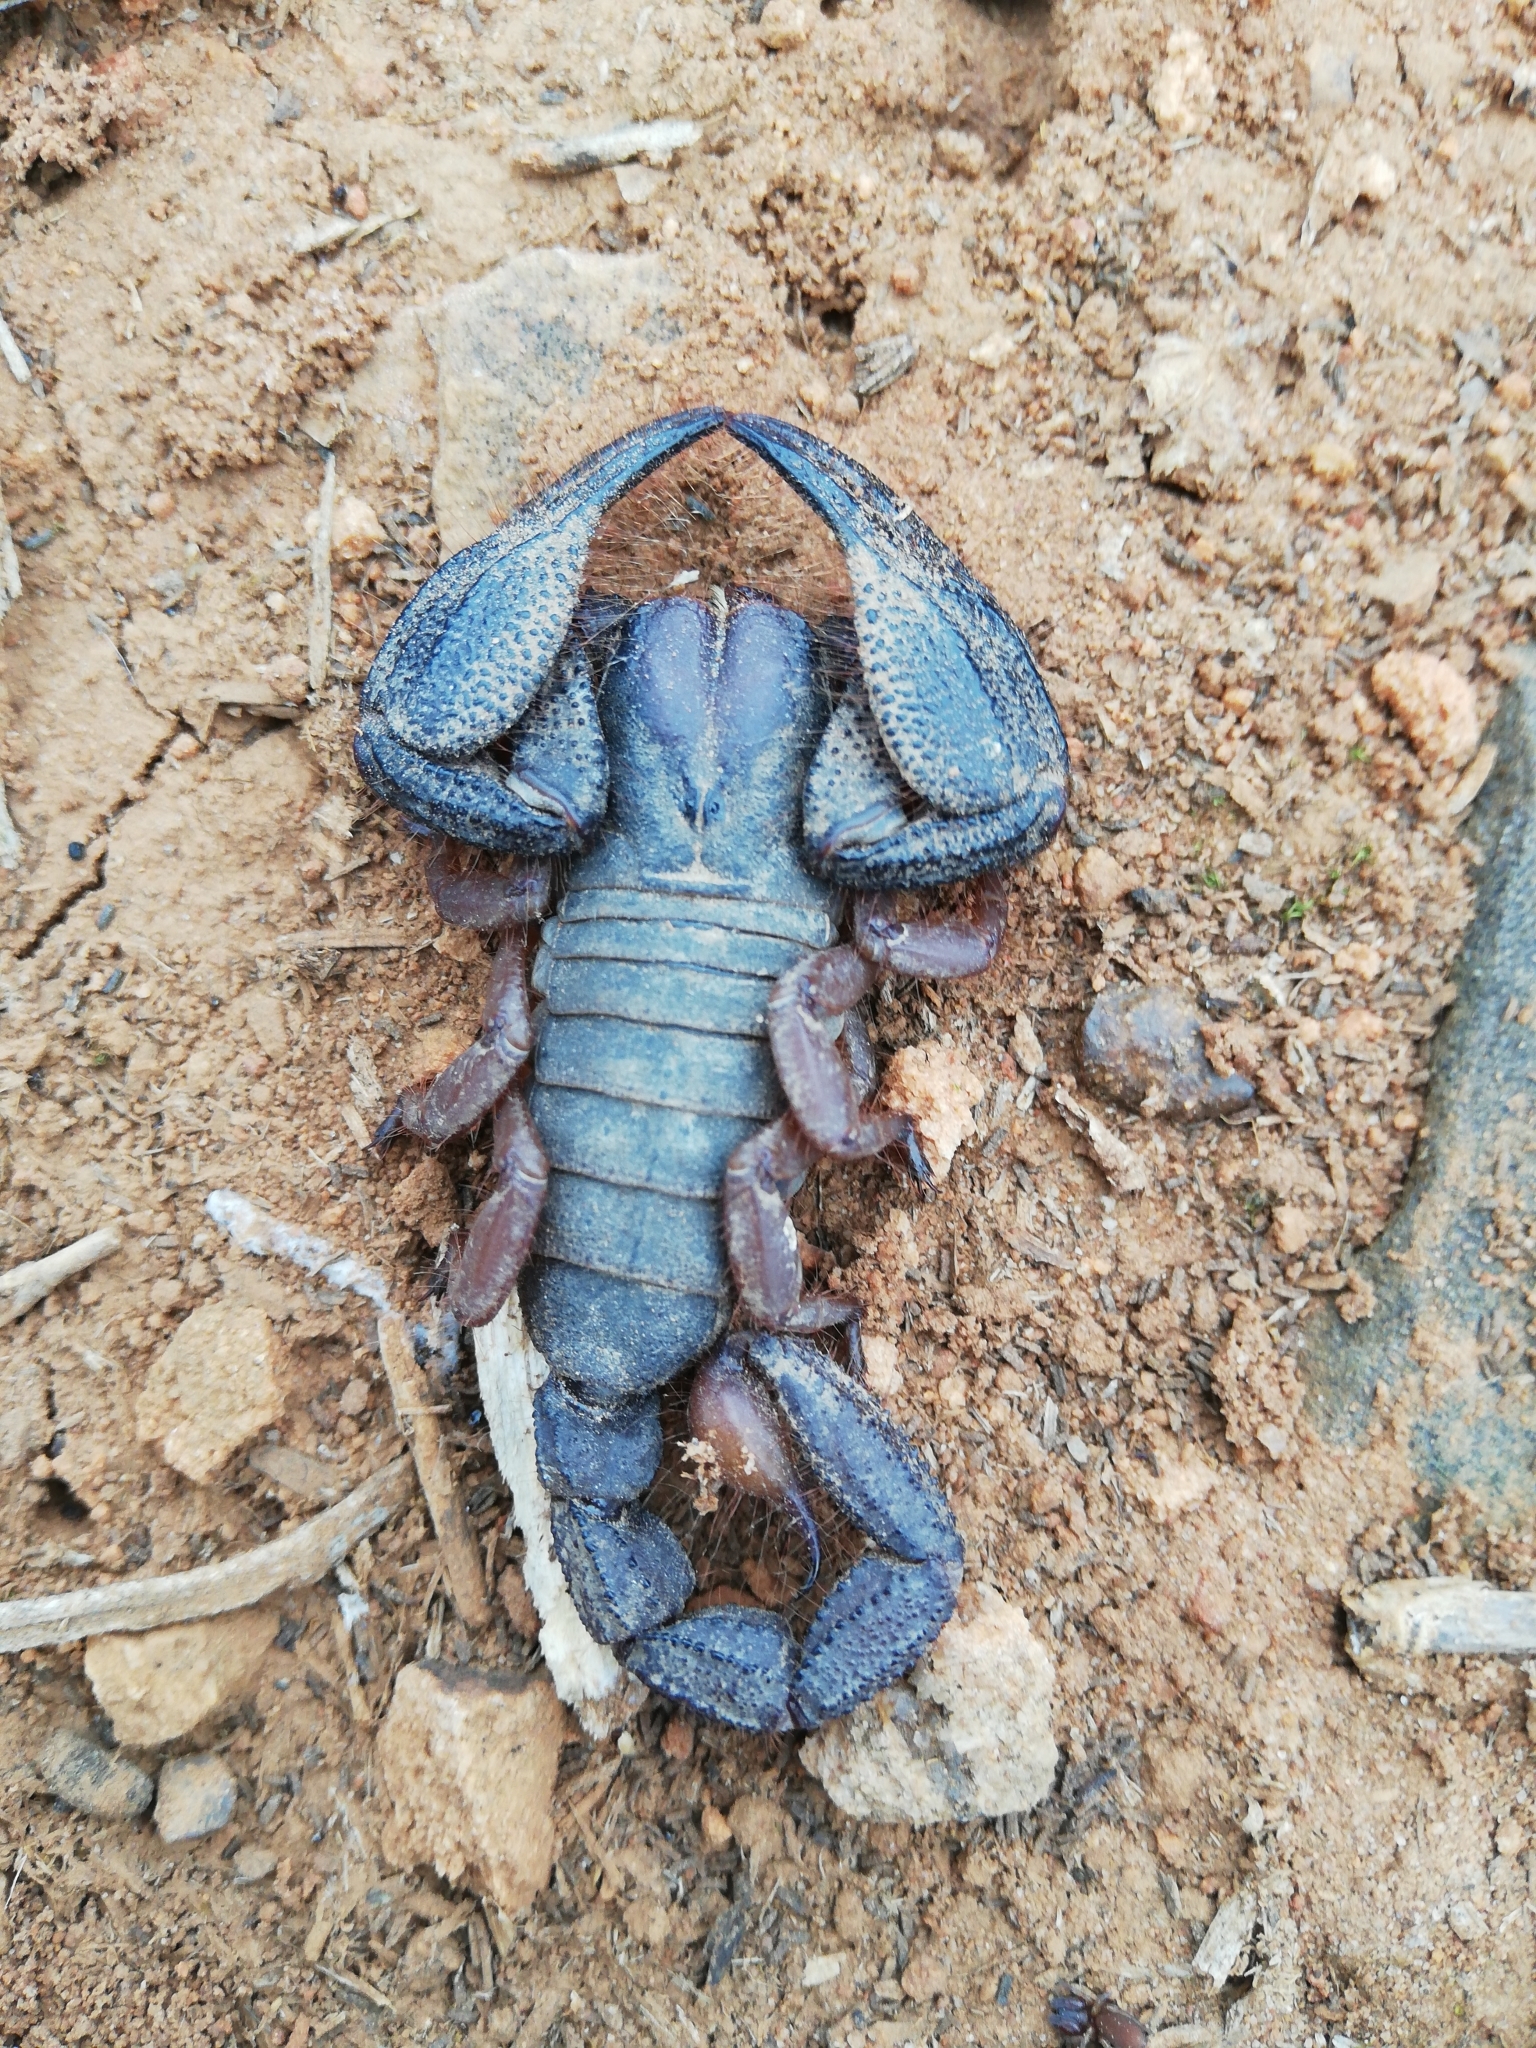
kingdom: Animalia
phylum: Arthropoda
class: Arachnida
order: Scorpiones
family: Scorpionidae
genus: Opistophthalmus
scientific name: Opistophthalmus latimanus
